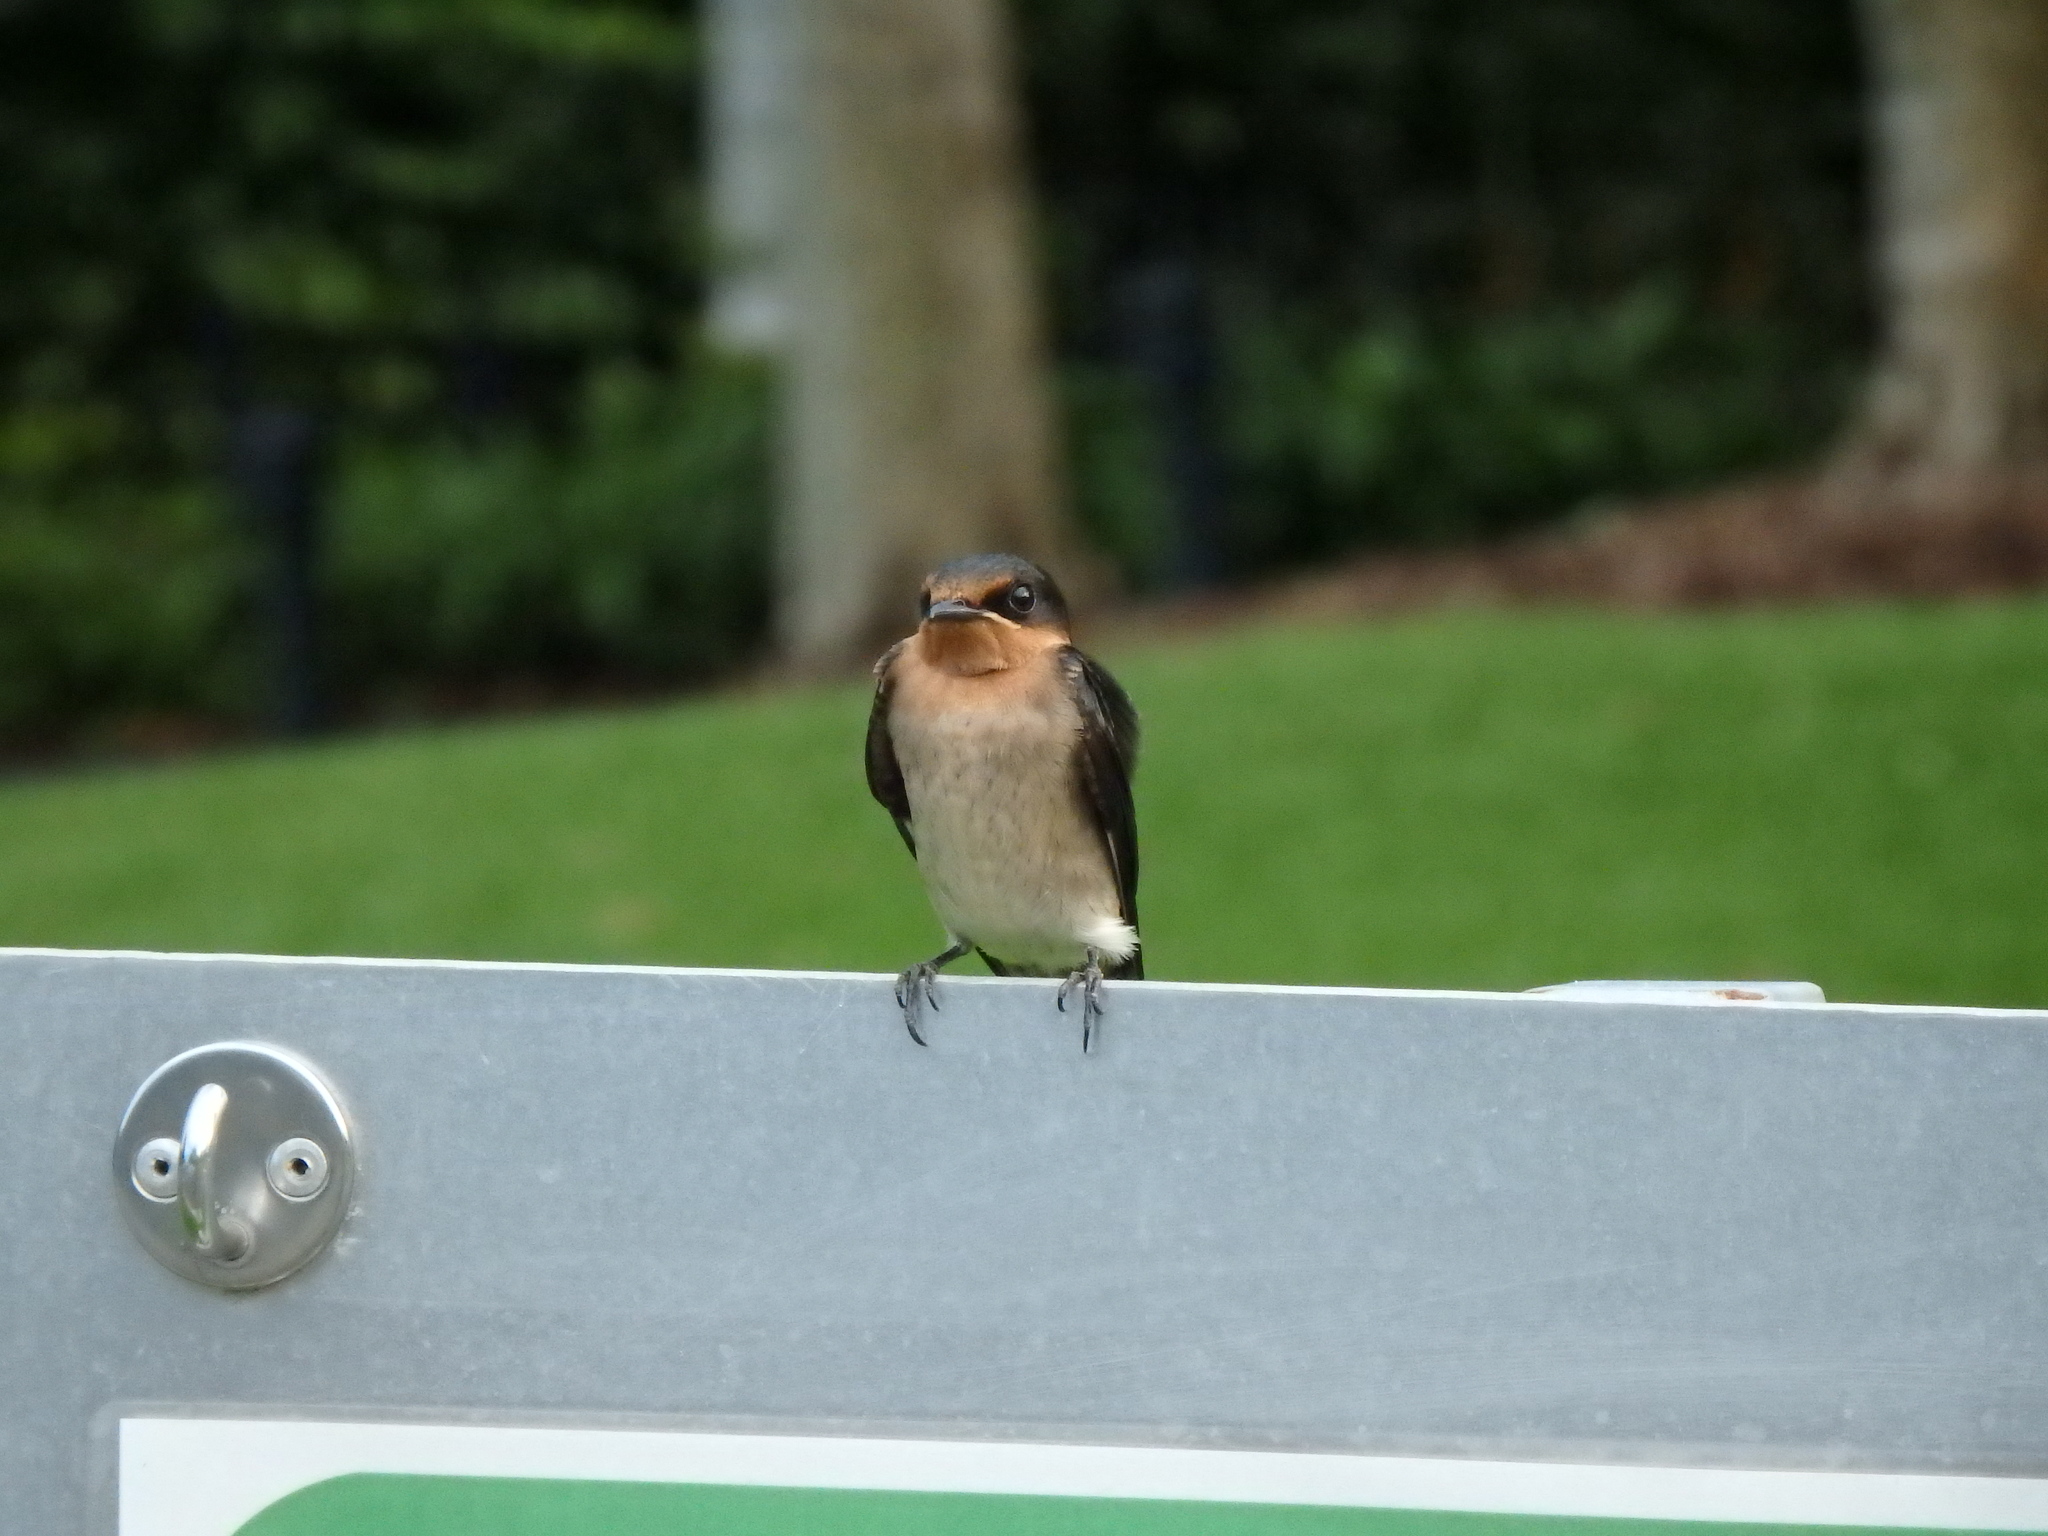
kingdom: Animalia
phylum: Chordata
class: Aves
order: Passeriformes
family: Hirundinidae
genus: Hirundo
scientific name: Hirundo tahitica
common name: Pacific swallow
